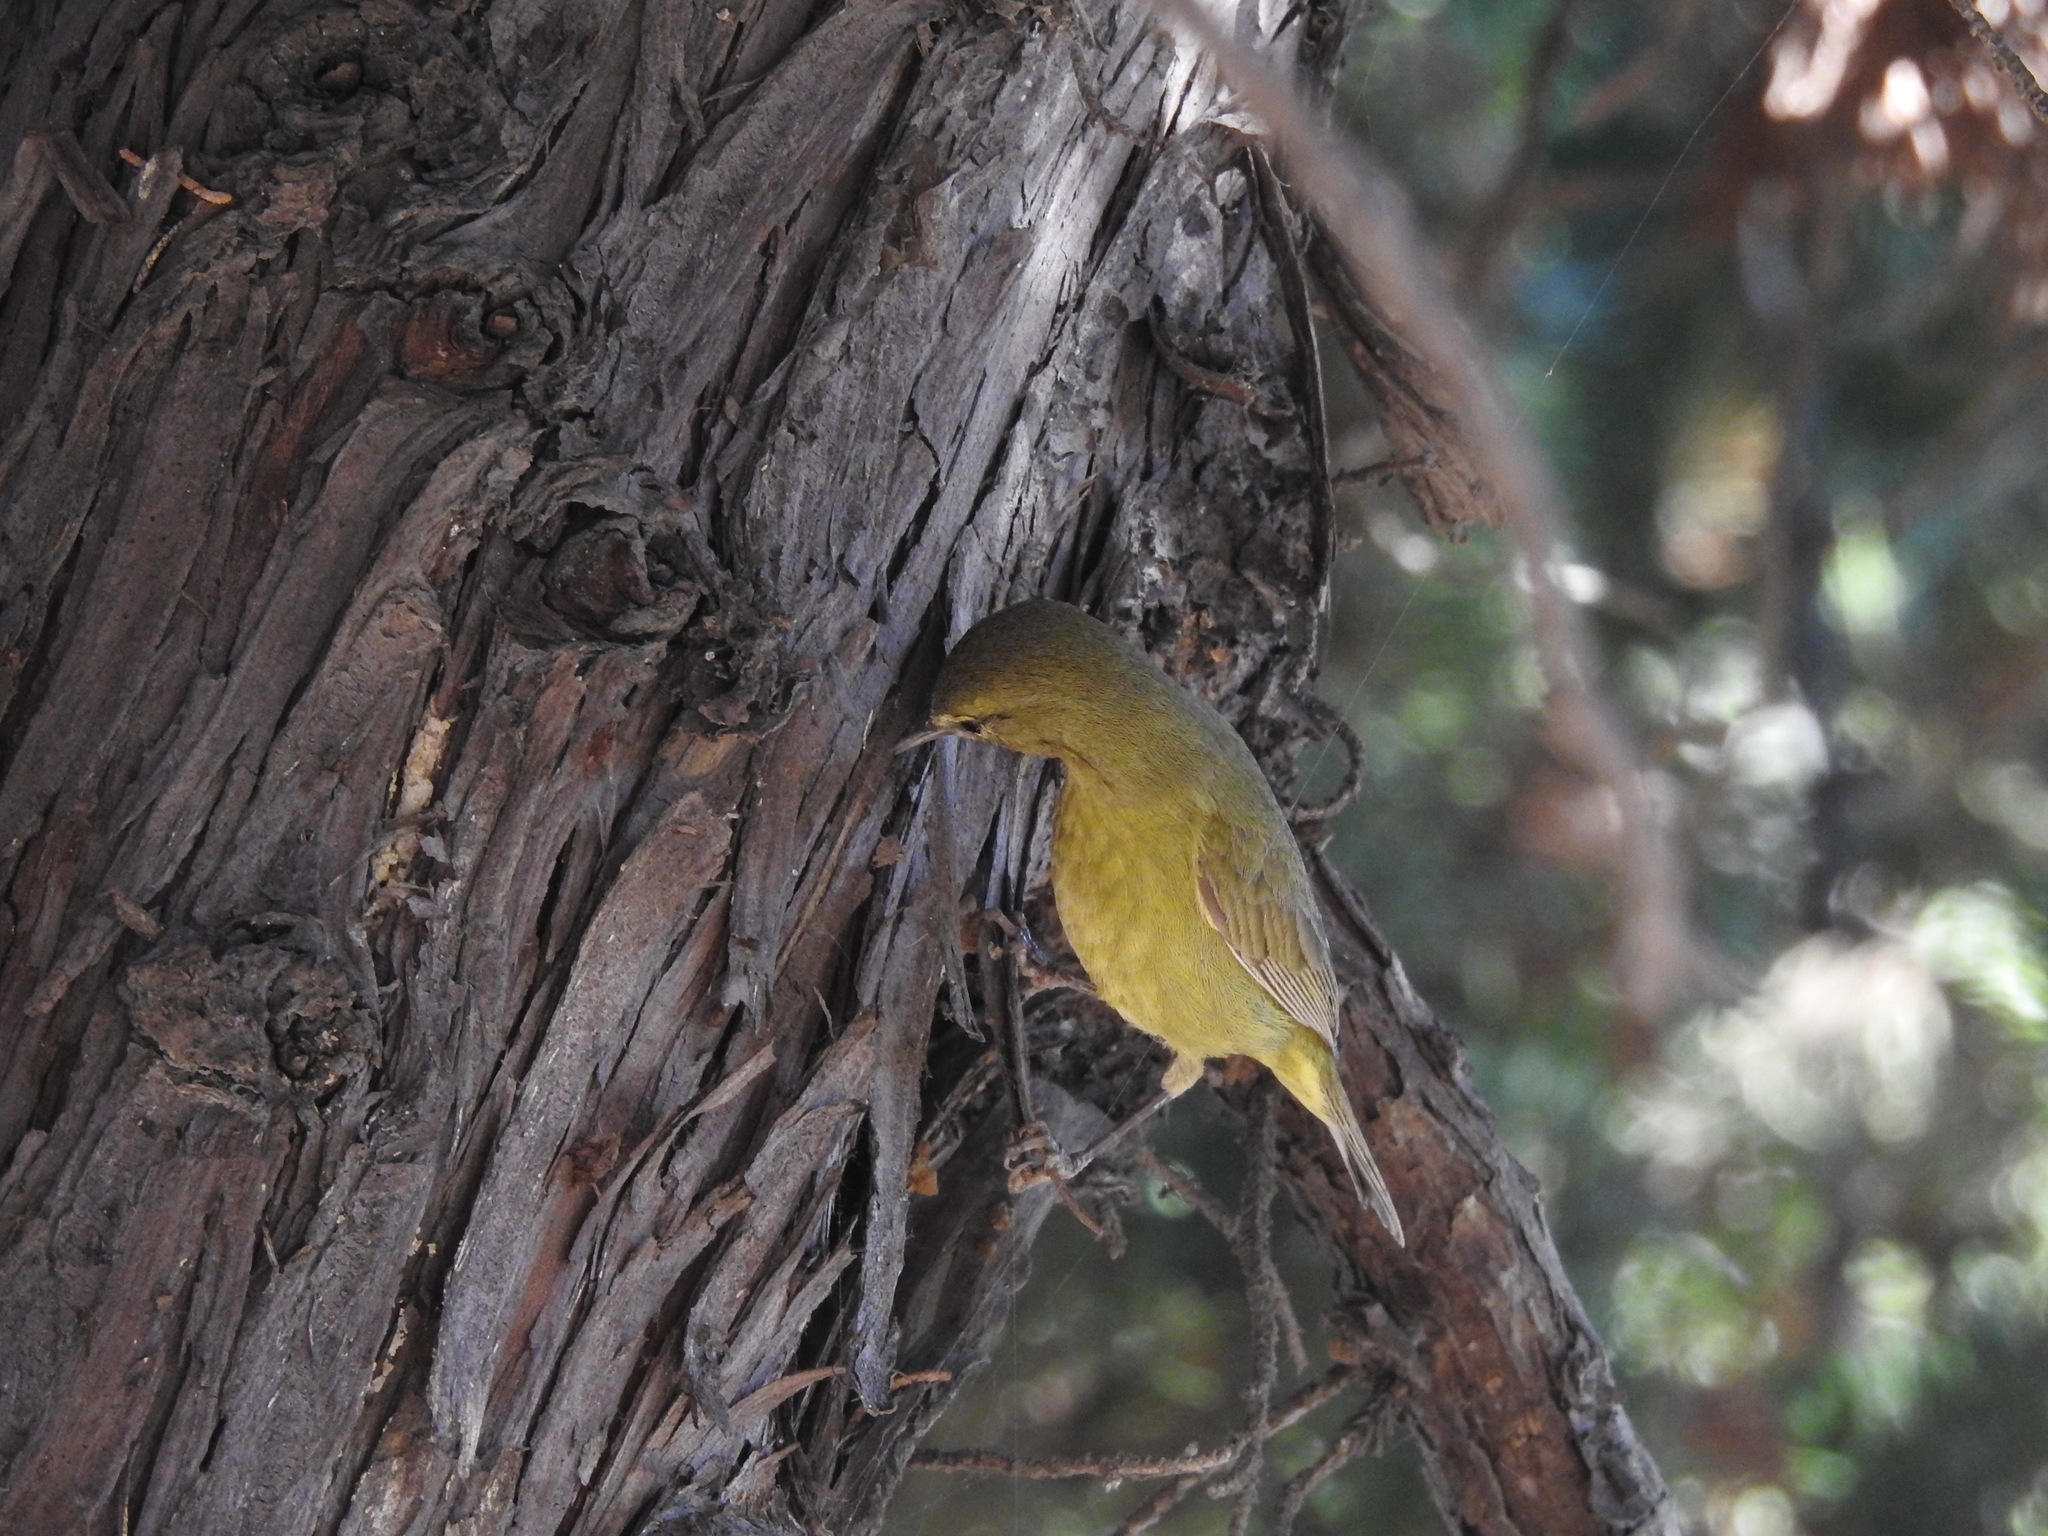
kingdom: Animalia
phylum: Chordata
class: Aves
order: Passeriformes
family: Parulidae
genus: Leiothlypis
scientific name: Leiothlypis celata
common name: Orange-crowned warbler
